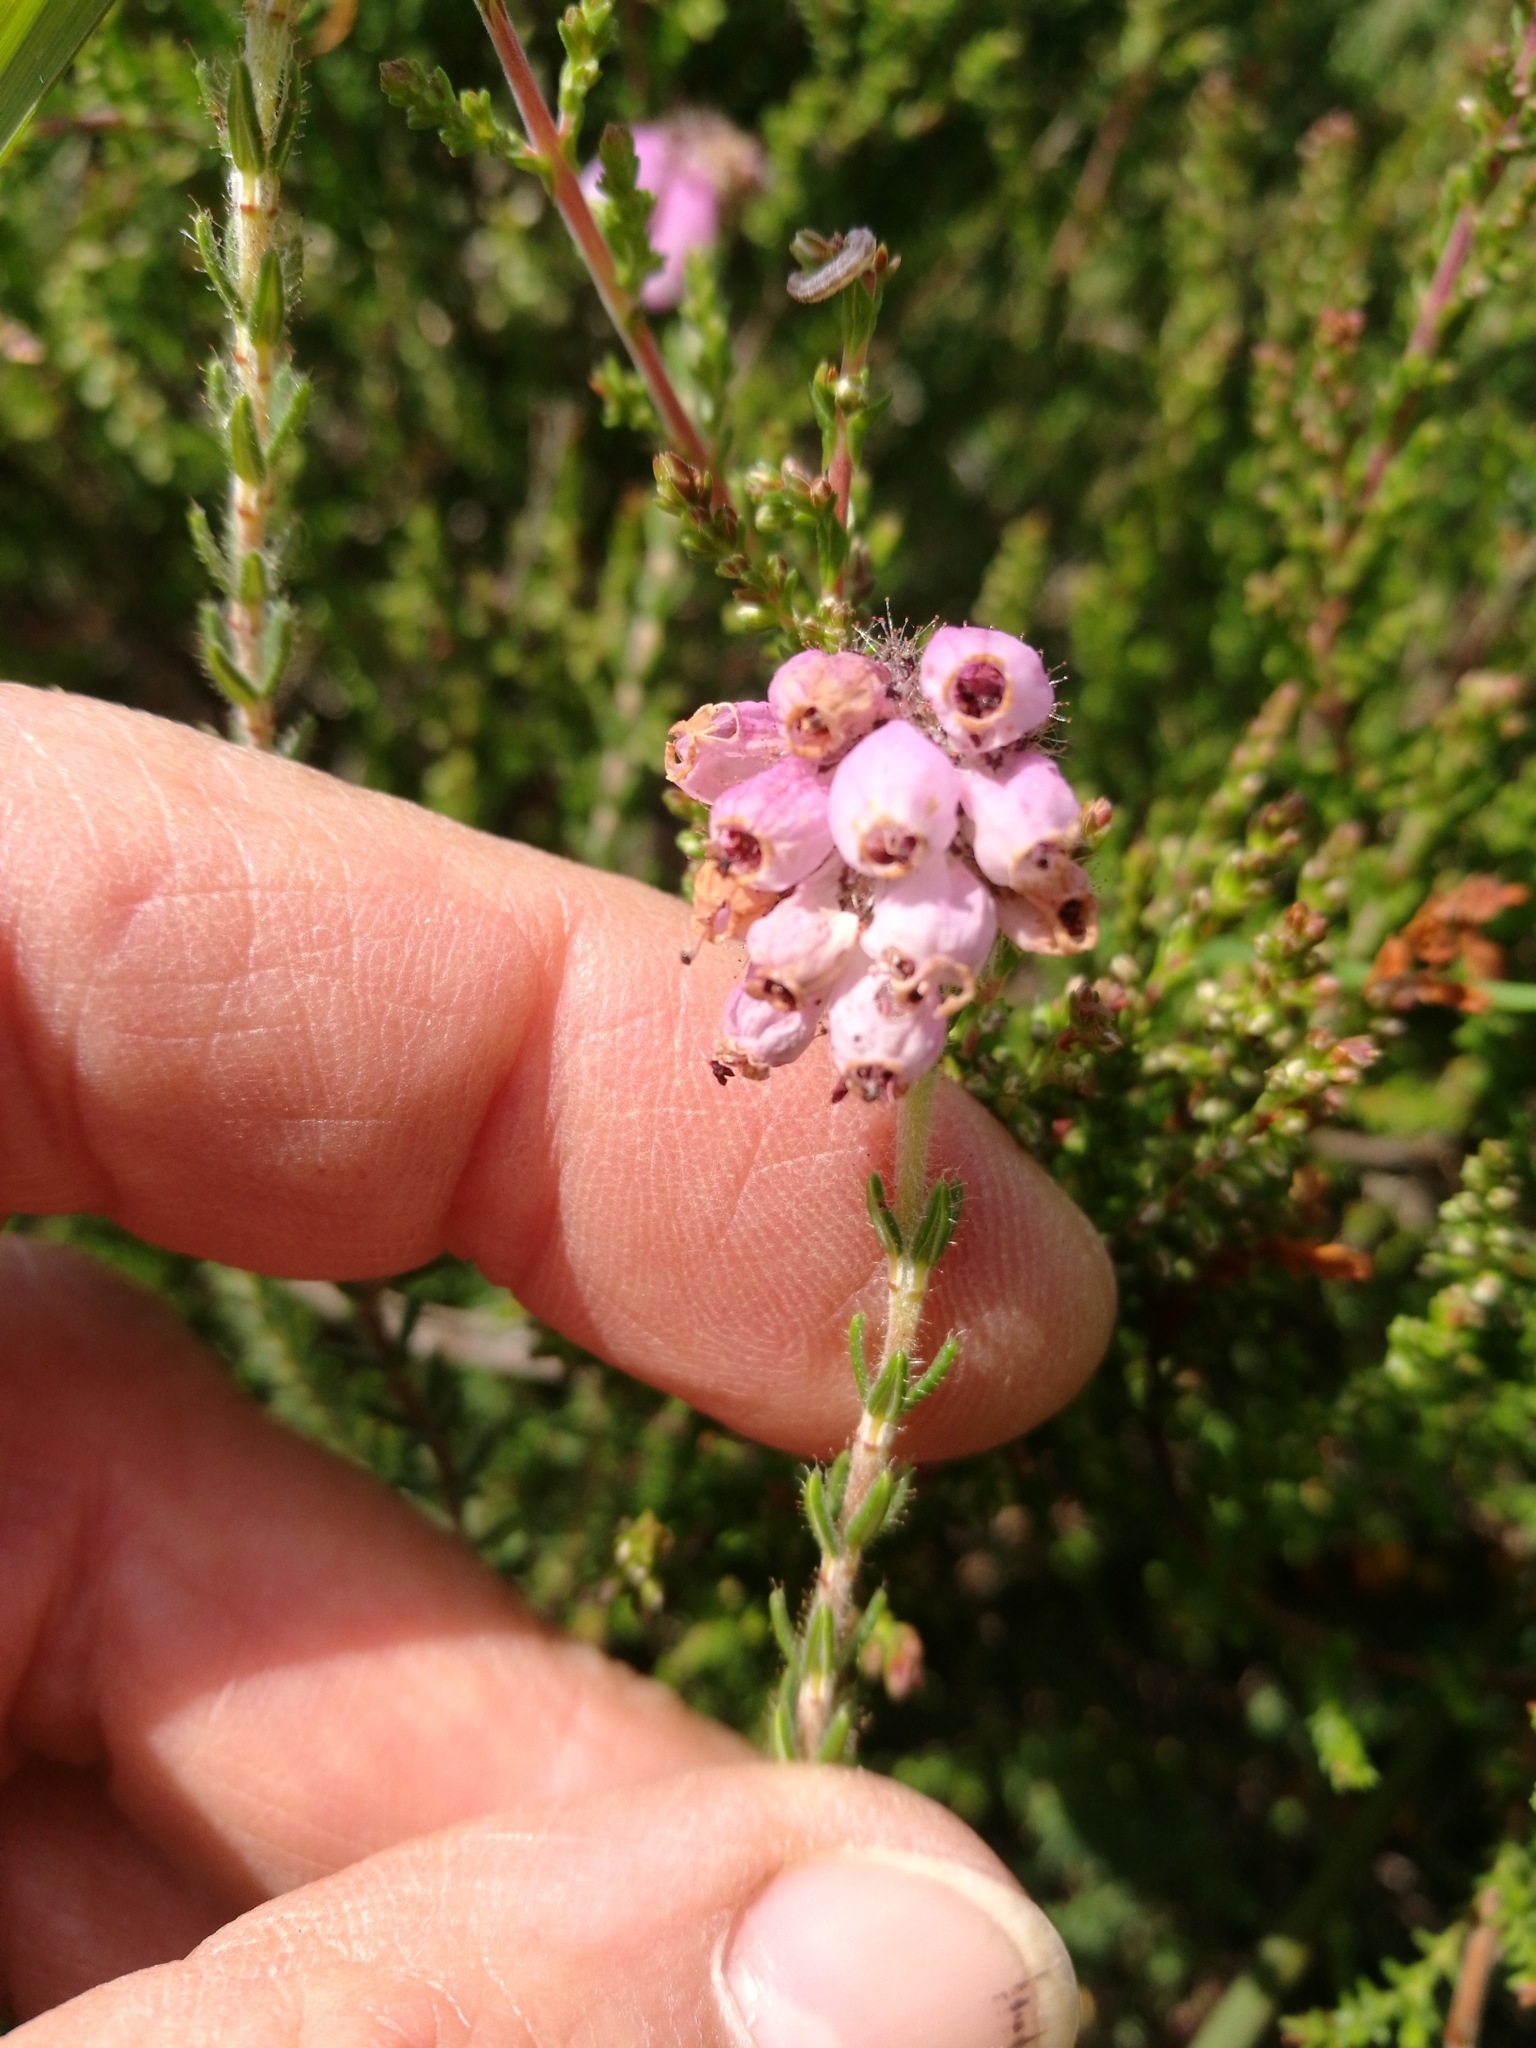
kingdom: Plantae
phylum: Tracheophyta
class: Magnoliopsida
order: Ericales
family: Ericaceae
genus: Erica
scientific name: Erica tetralix
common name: Cross-leaved heath
